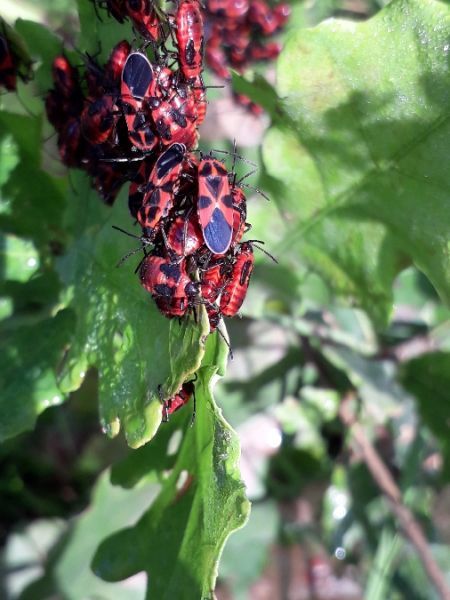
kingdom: Animalia
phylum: Arthropoda
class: Insecta
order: Hemiptera
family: Lygaeidae
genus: Tropidothorax
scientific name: Tropidothorax leucopterus
